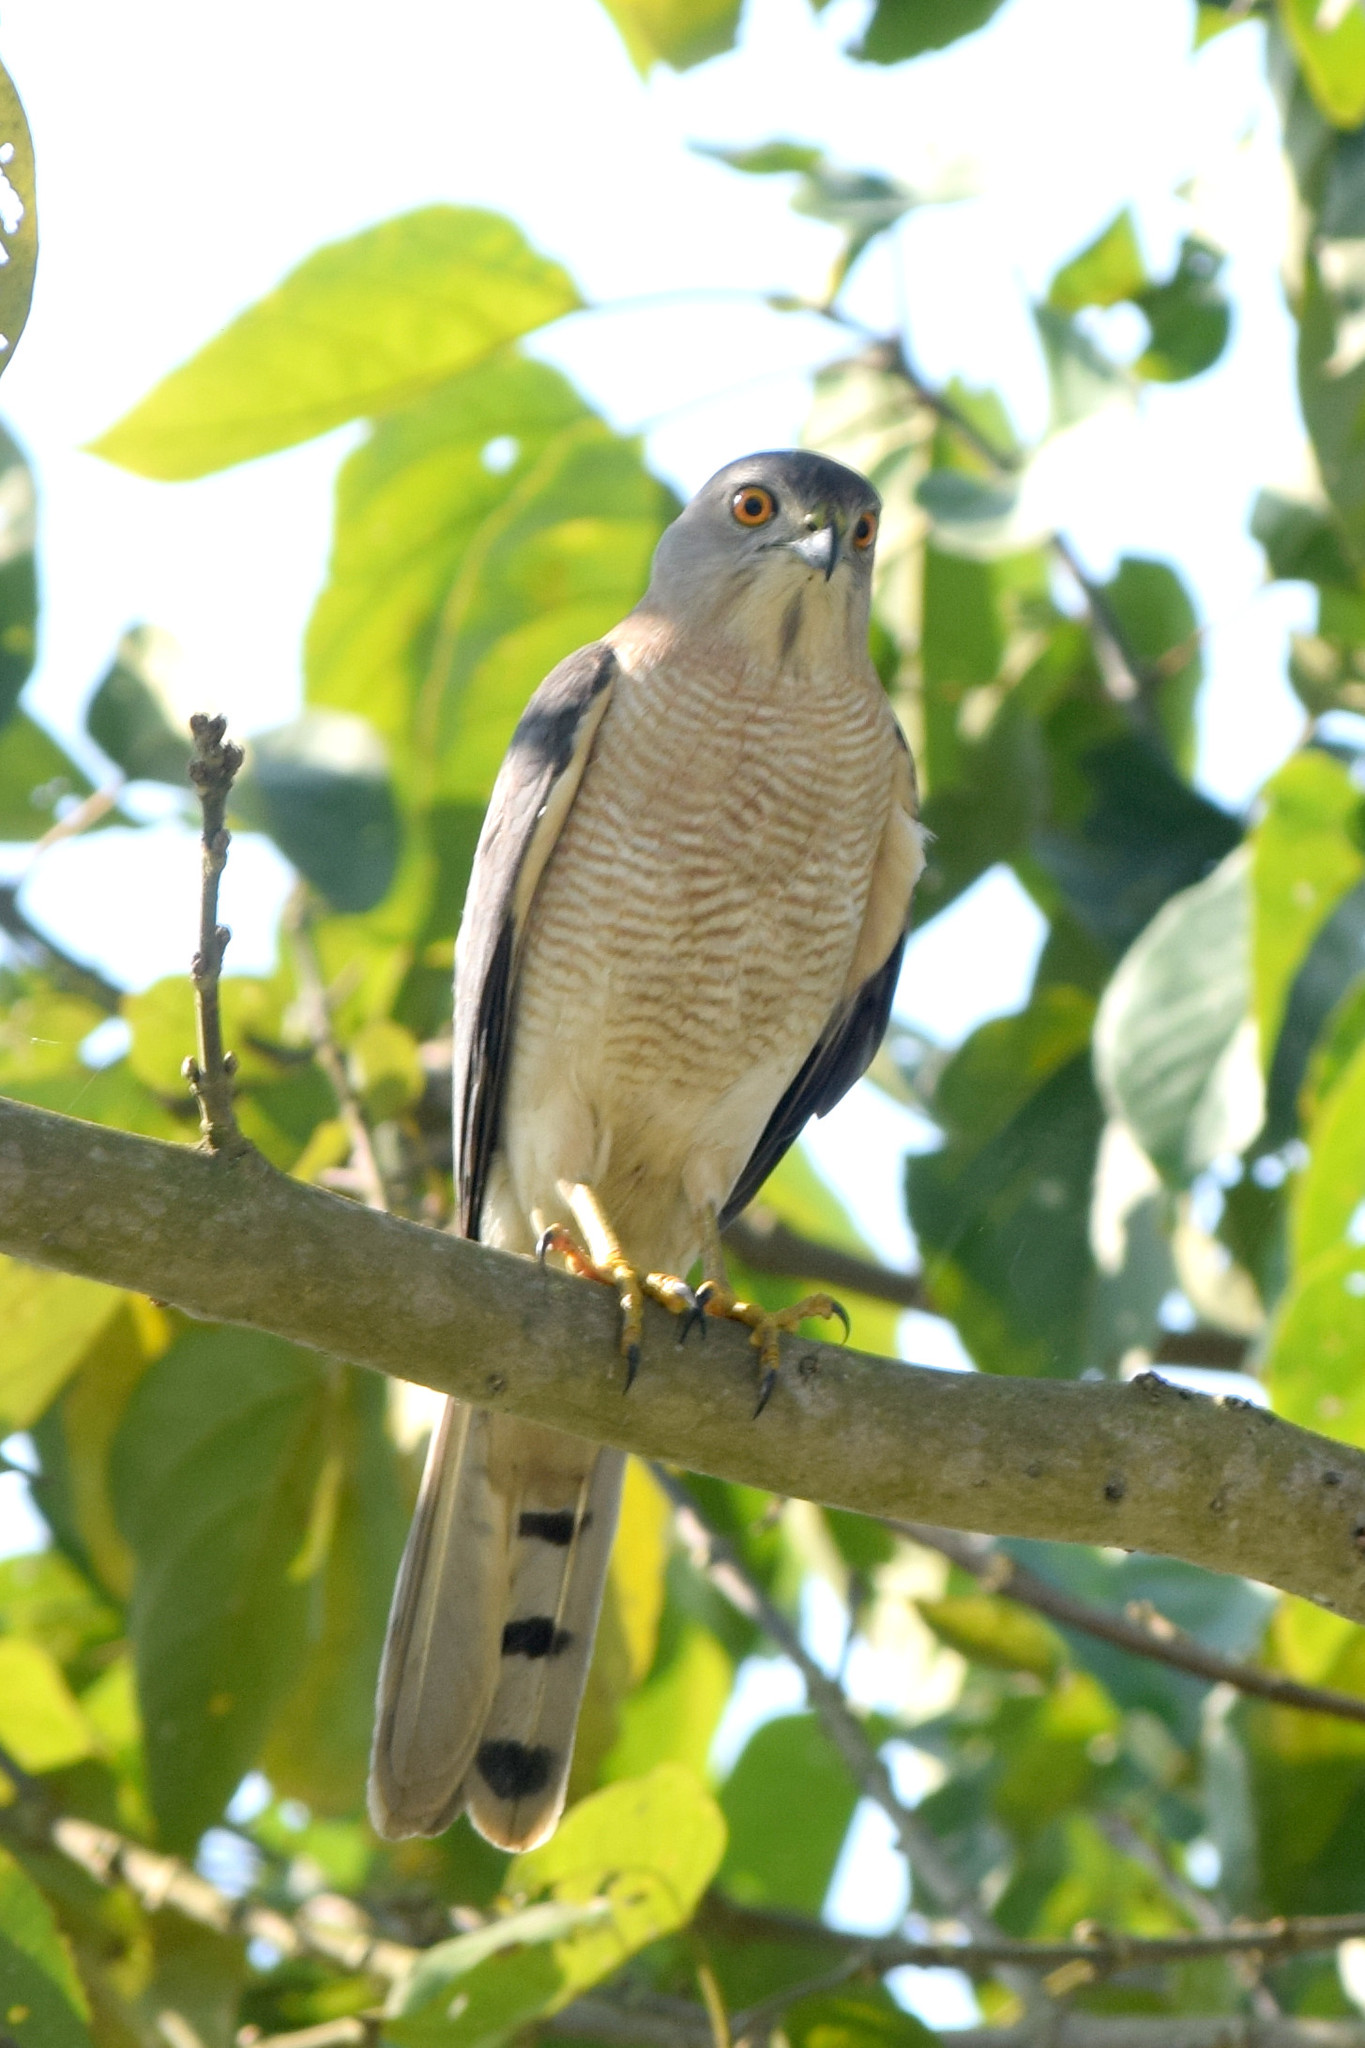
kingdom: Animalia
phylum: Chordata
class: Aves
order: Accipitriformes
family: Accipitridae
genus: Accipiter
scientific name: Accipiter badius
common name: Shikra
